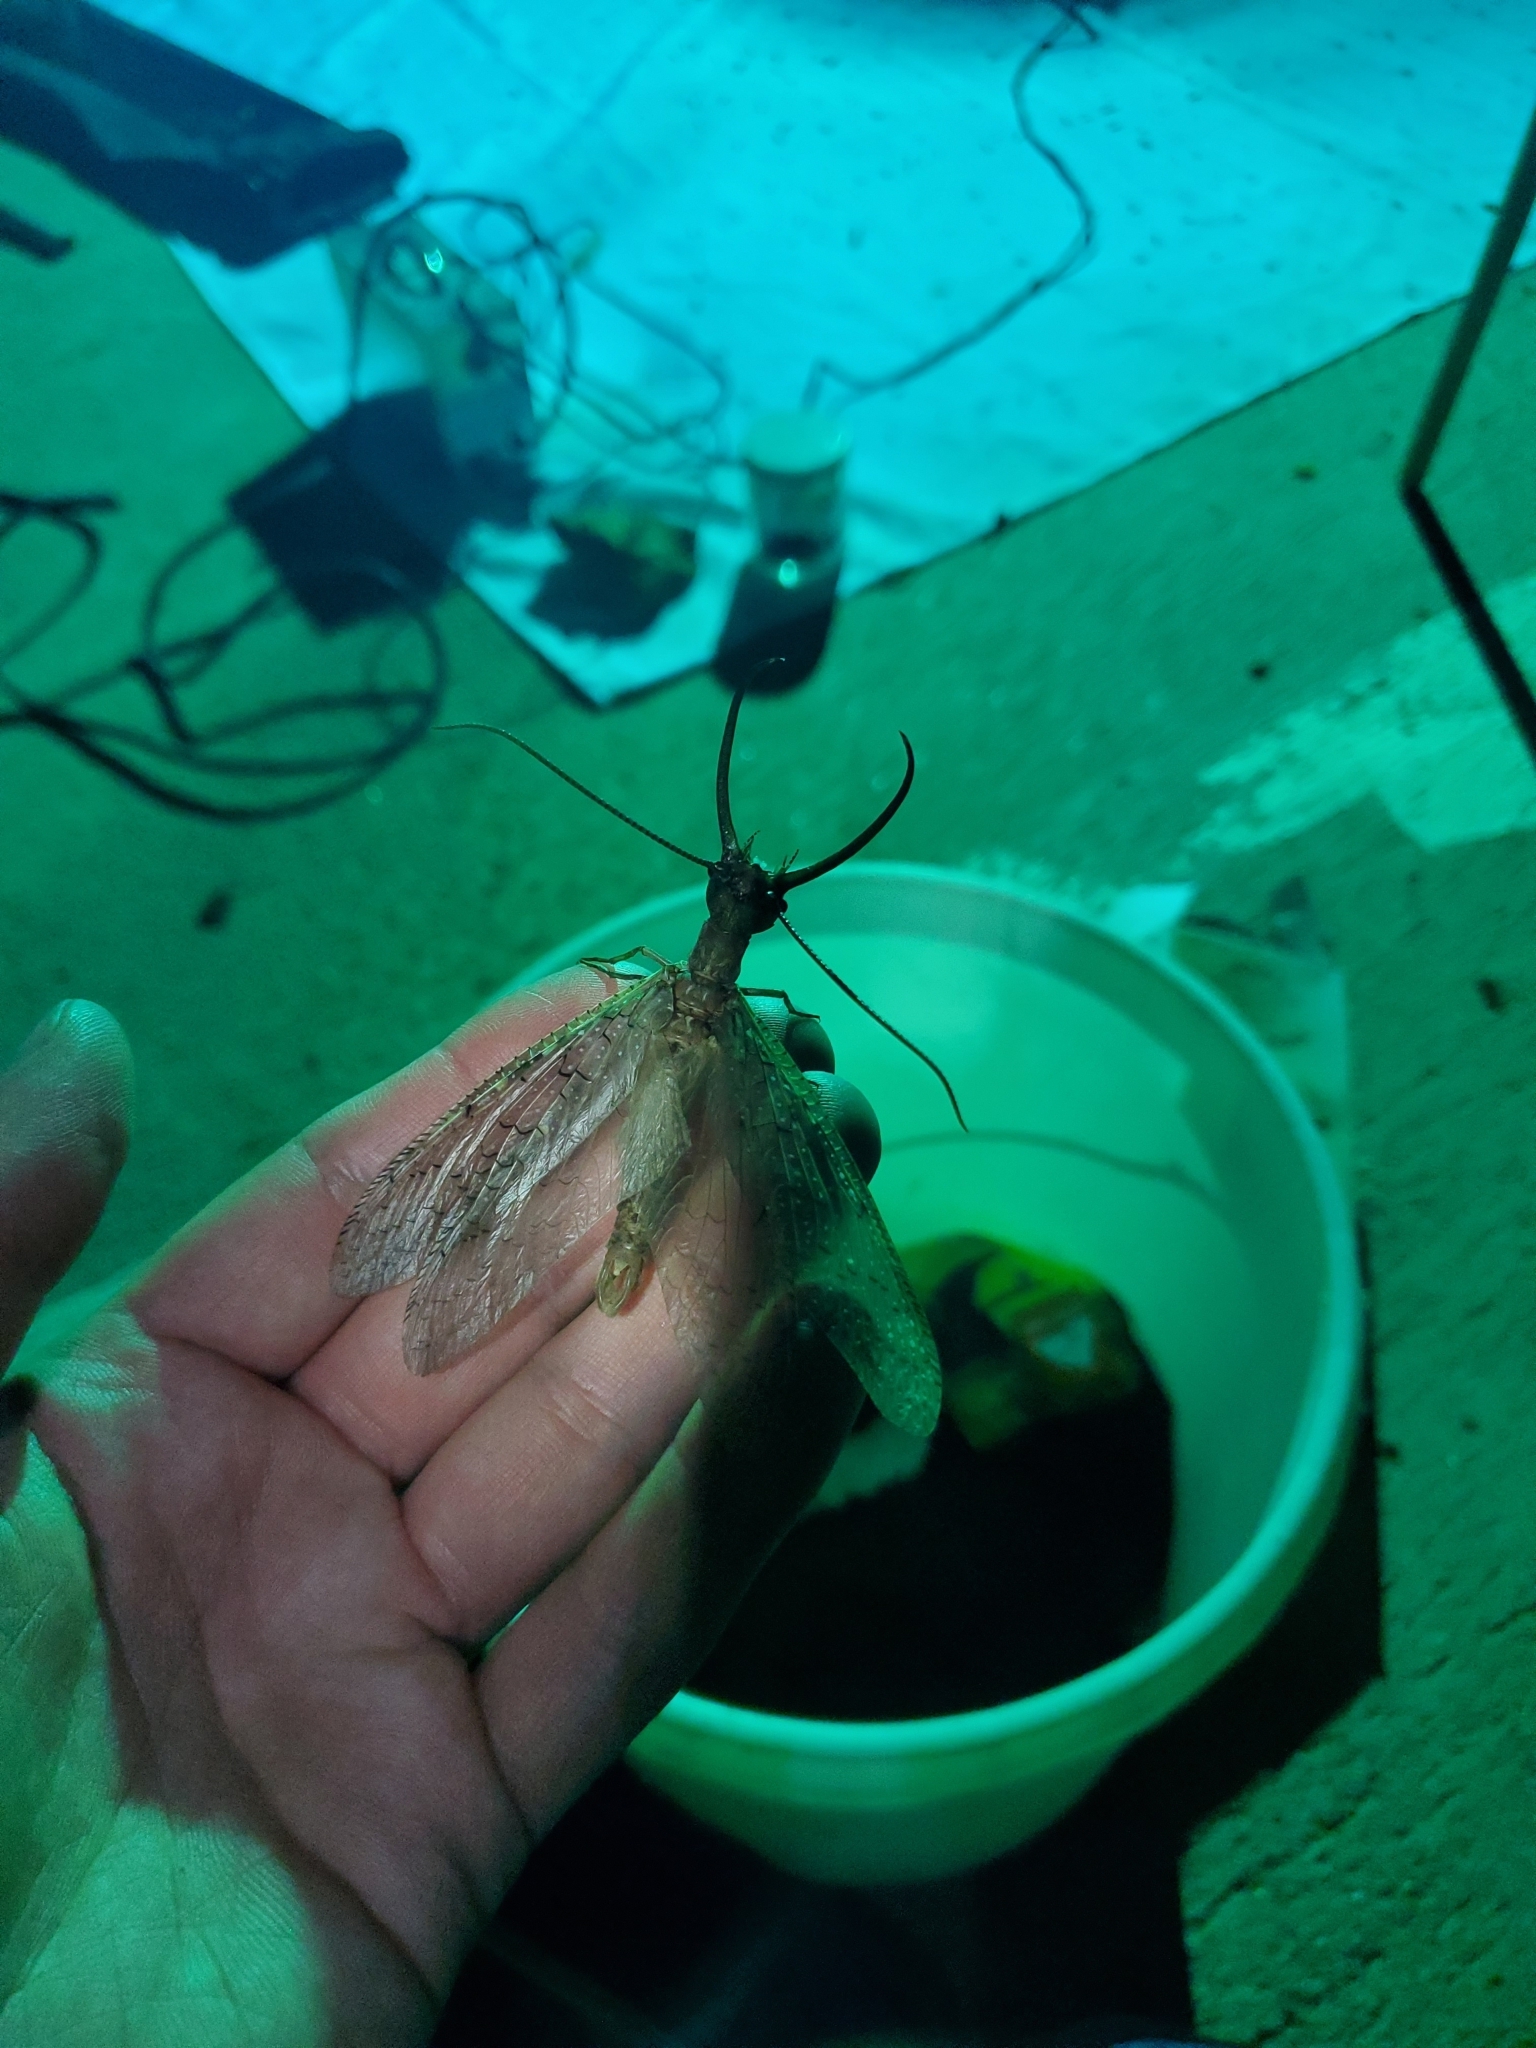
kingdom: Animalia
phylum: Arthropoda
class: Insecta
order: Megaloptera
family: Corydalidae
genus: Corydalus
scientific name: Corydalus cornutus
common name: Dobsonfly
